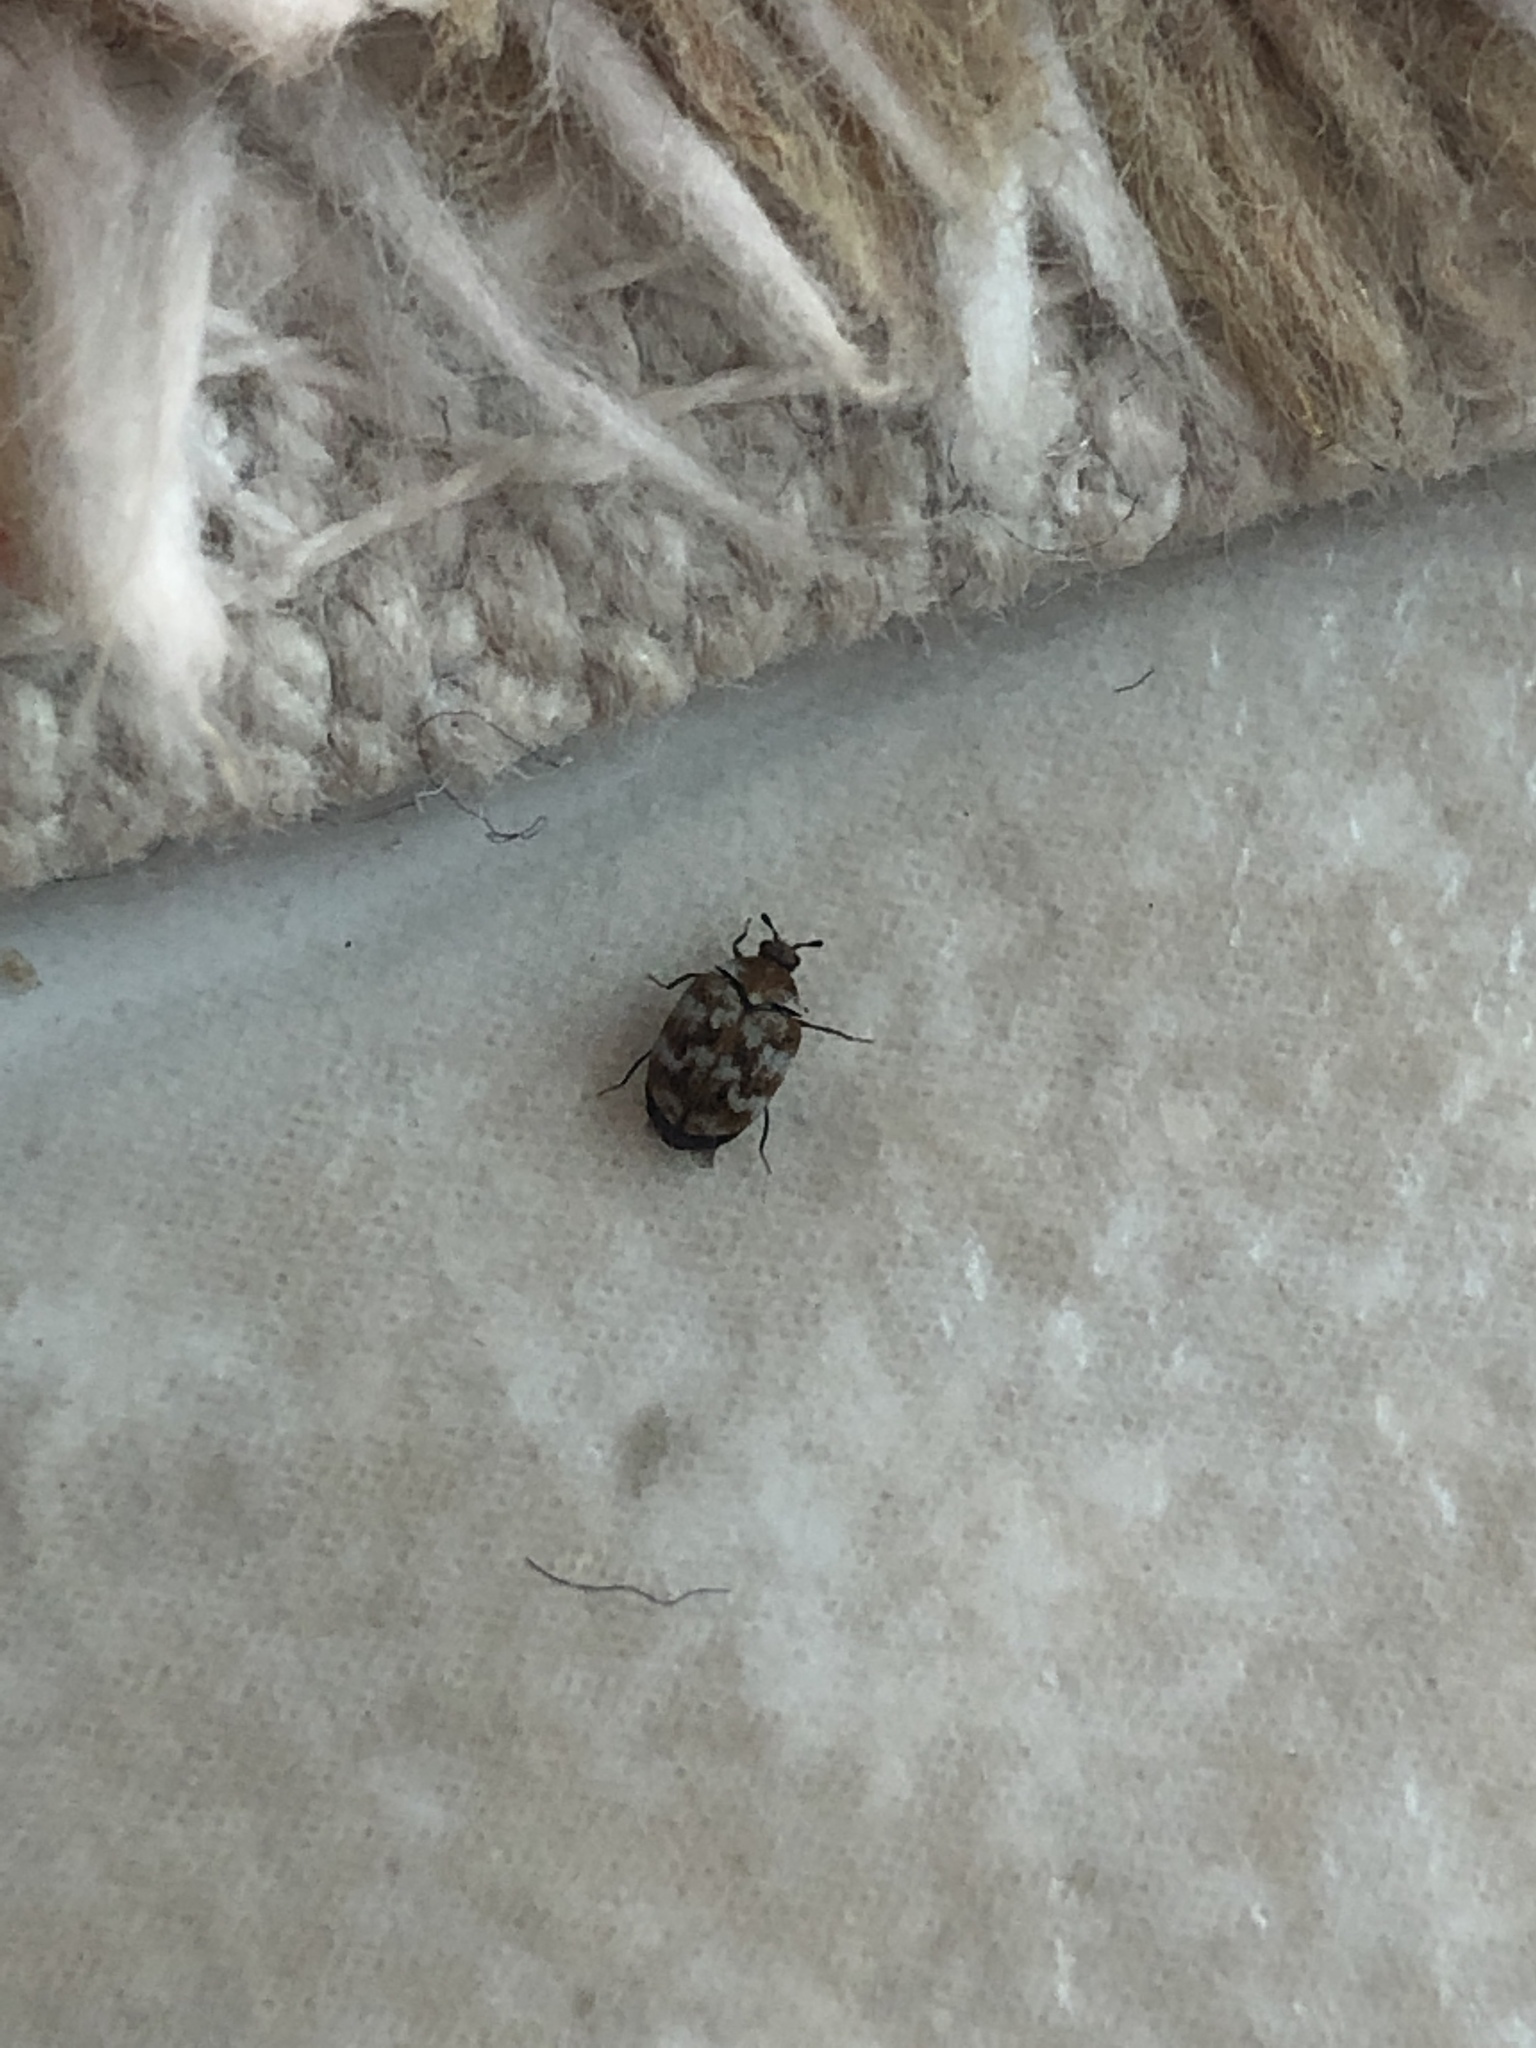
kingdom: Animalia
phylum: Arthropoda
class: Insecta
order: Coleoptera
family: Dermestidae
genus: Anthrenus
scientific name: Anthrenus verbasci
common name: Varied carpet beetle
